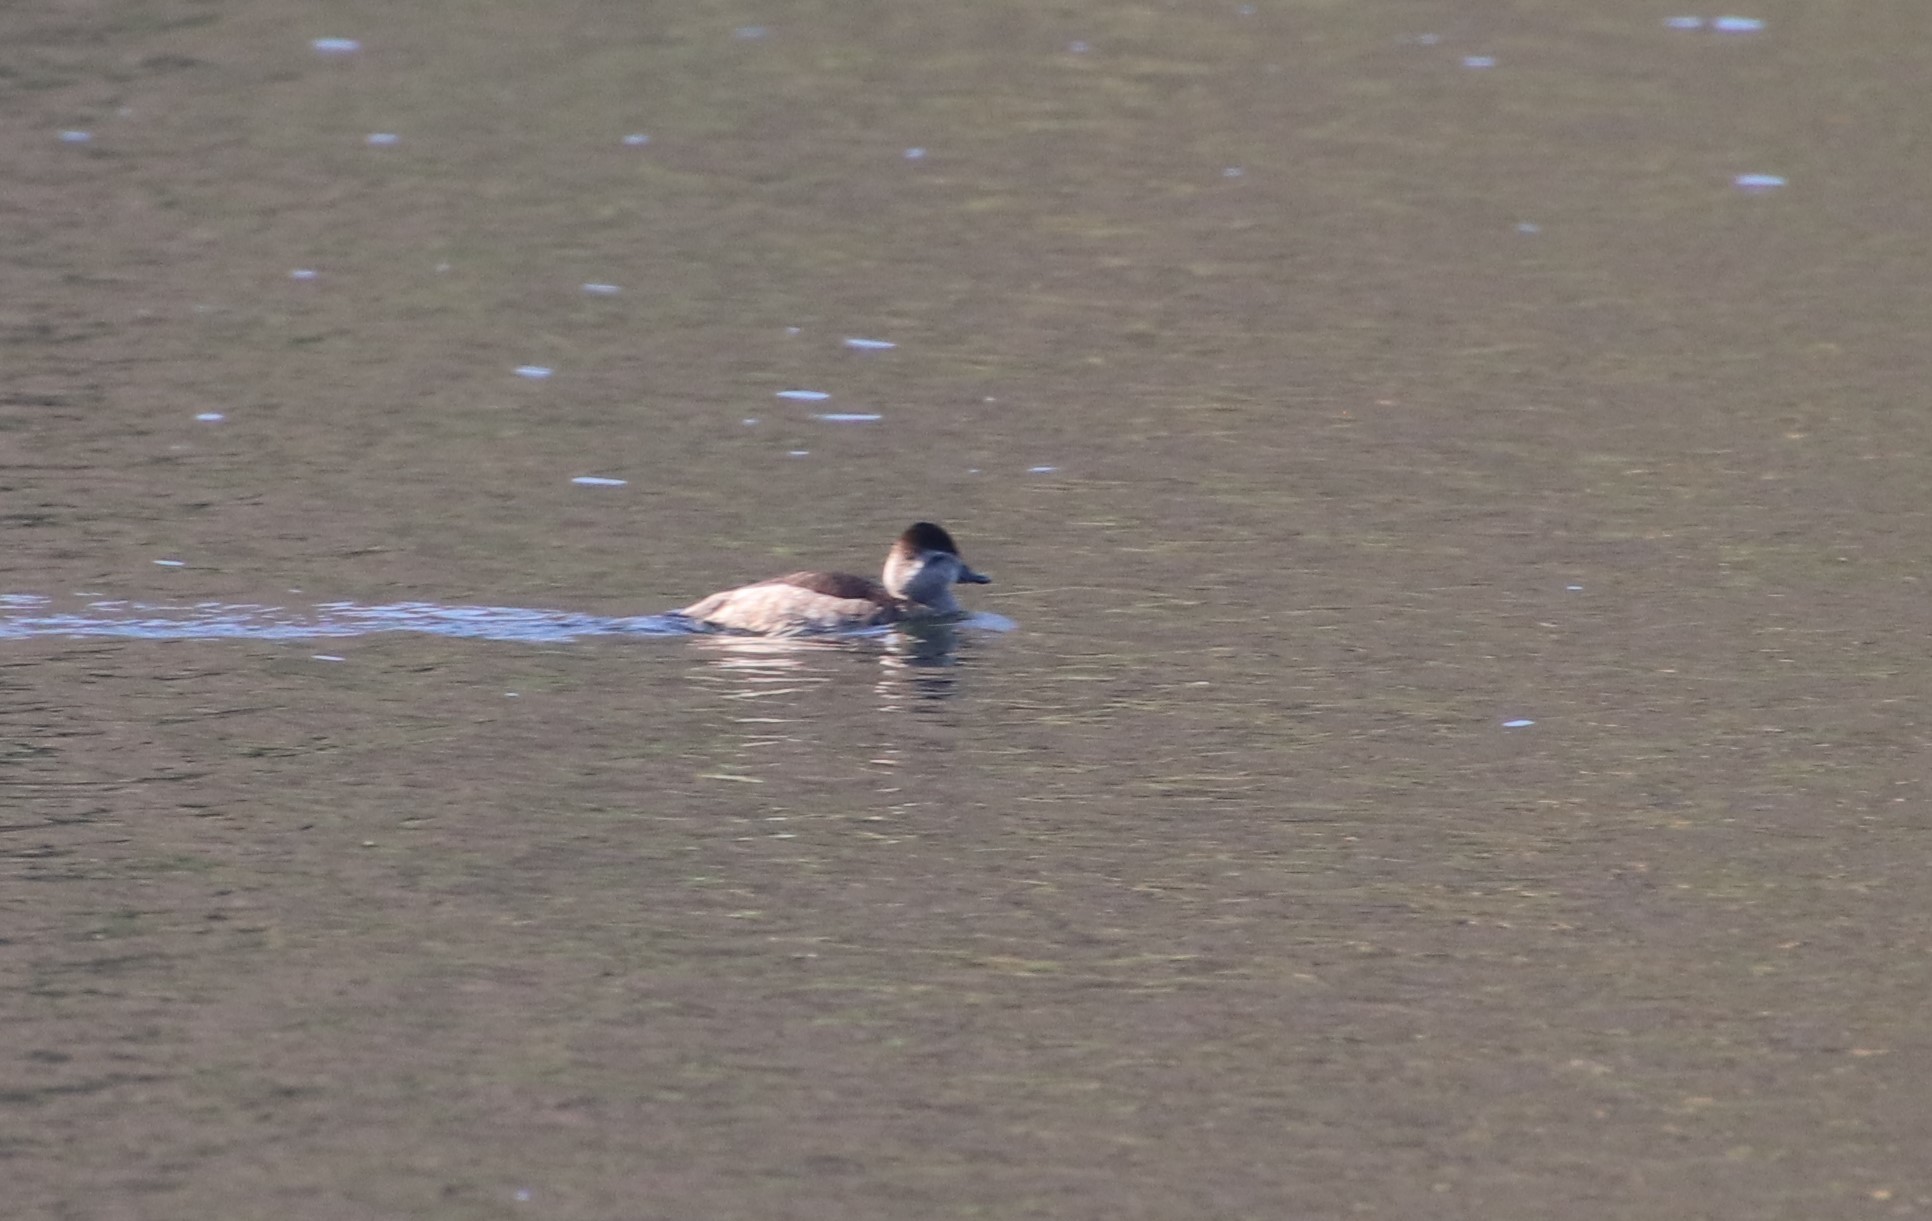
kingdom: Animalia
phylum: Chordata
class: Aves
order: Anseriformes
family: Anatidae
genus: Oxyura
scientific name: Oxyura jamaicensis
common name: Ruddy duck
